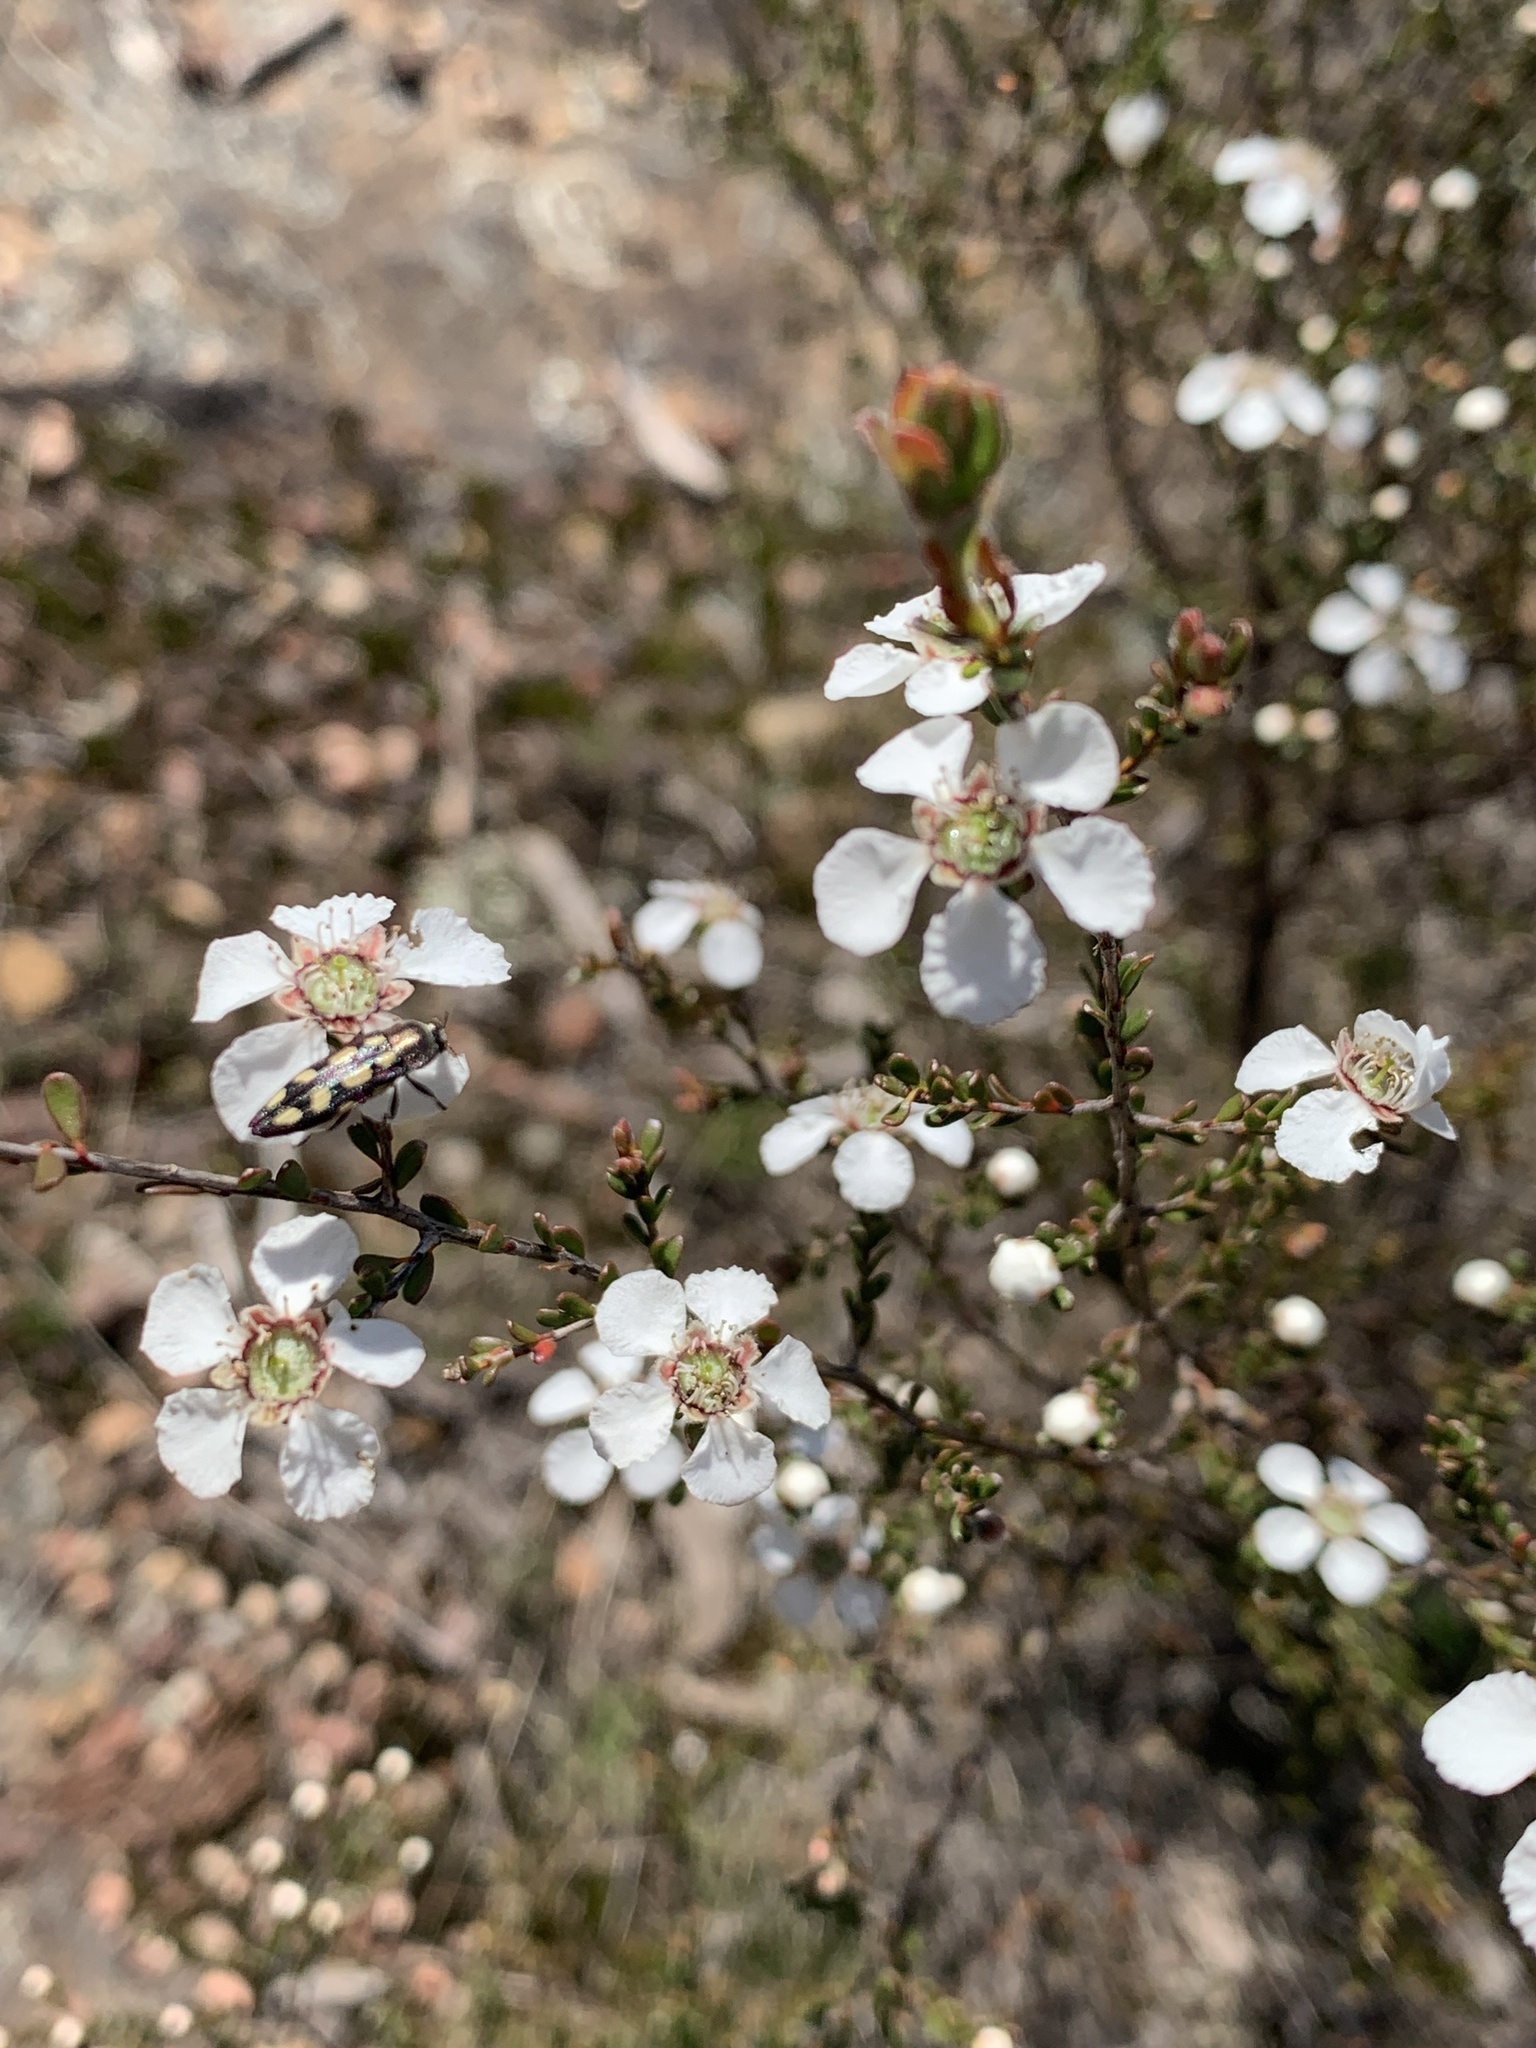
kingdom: Plantae
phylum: Tracheophyta
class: Magnoliopsida
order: Myrtales
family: Myrtaceae
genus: Leptospermum
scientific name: Leptospermum parvifolium
